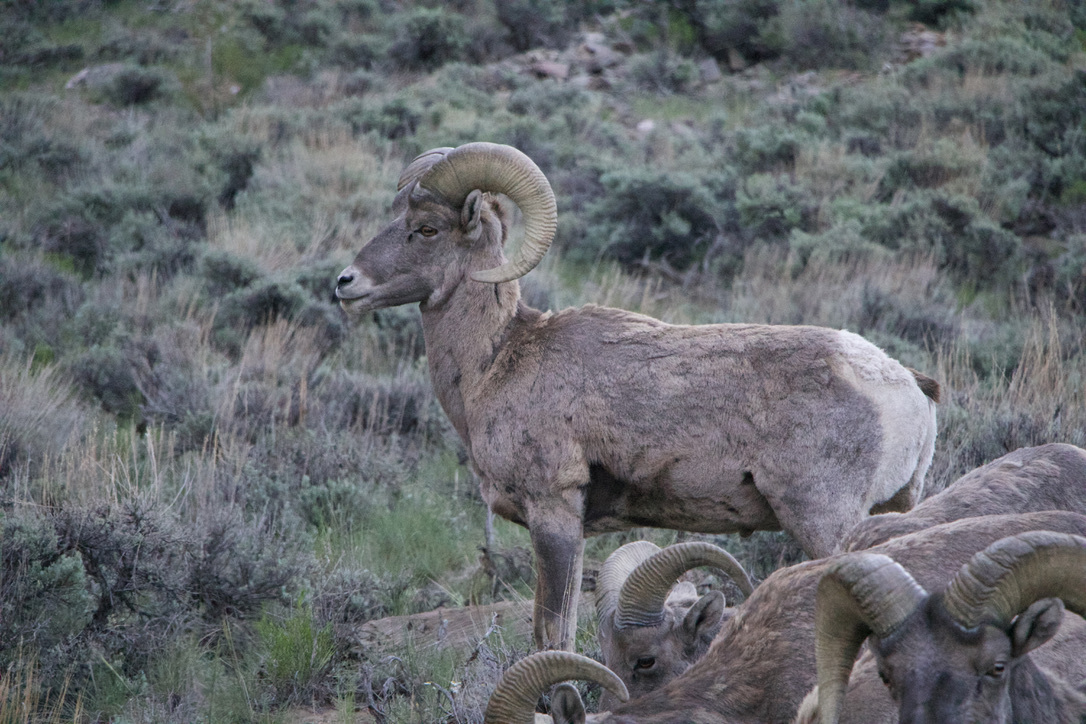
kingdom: Animalia
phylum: Chordata
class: Mammalia
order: Artiodactyla
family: Bovidae
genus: Ovis
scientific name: Ovis canadensis
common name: Bighorn sheep
